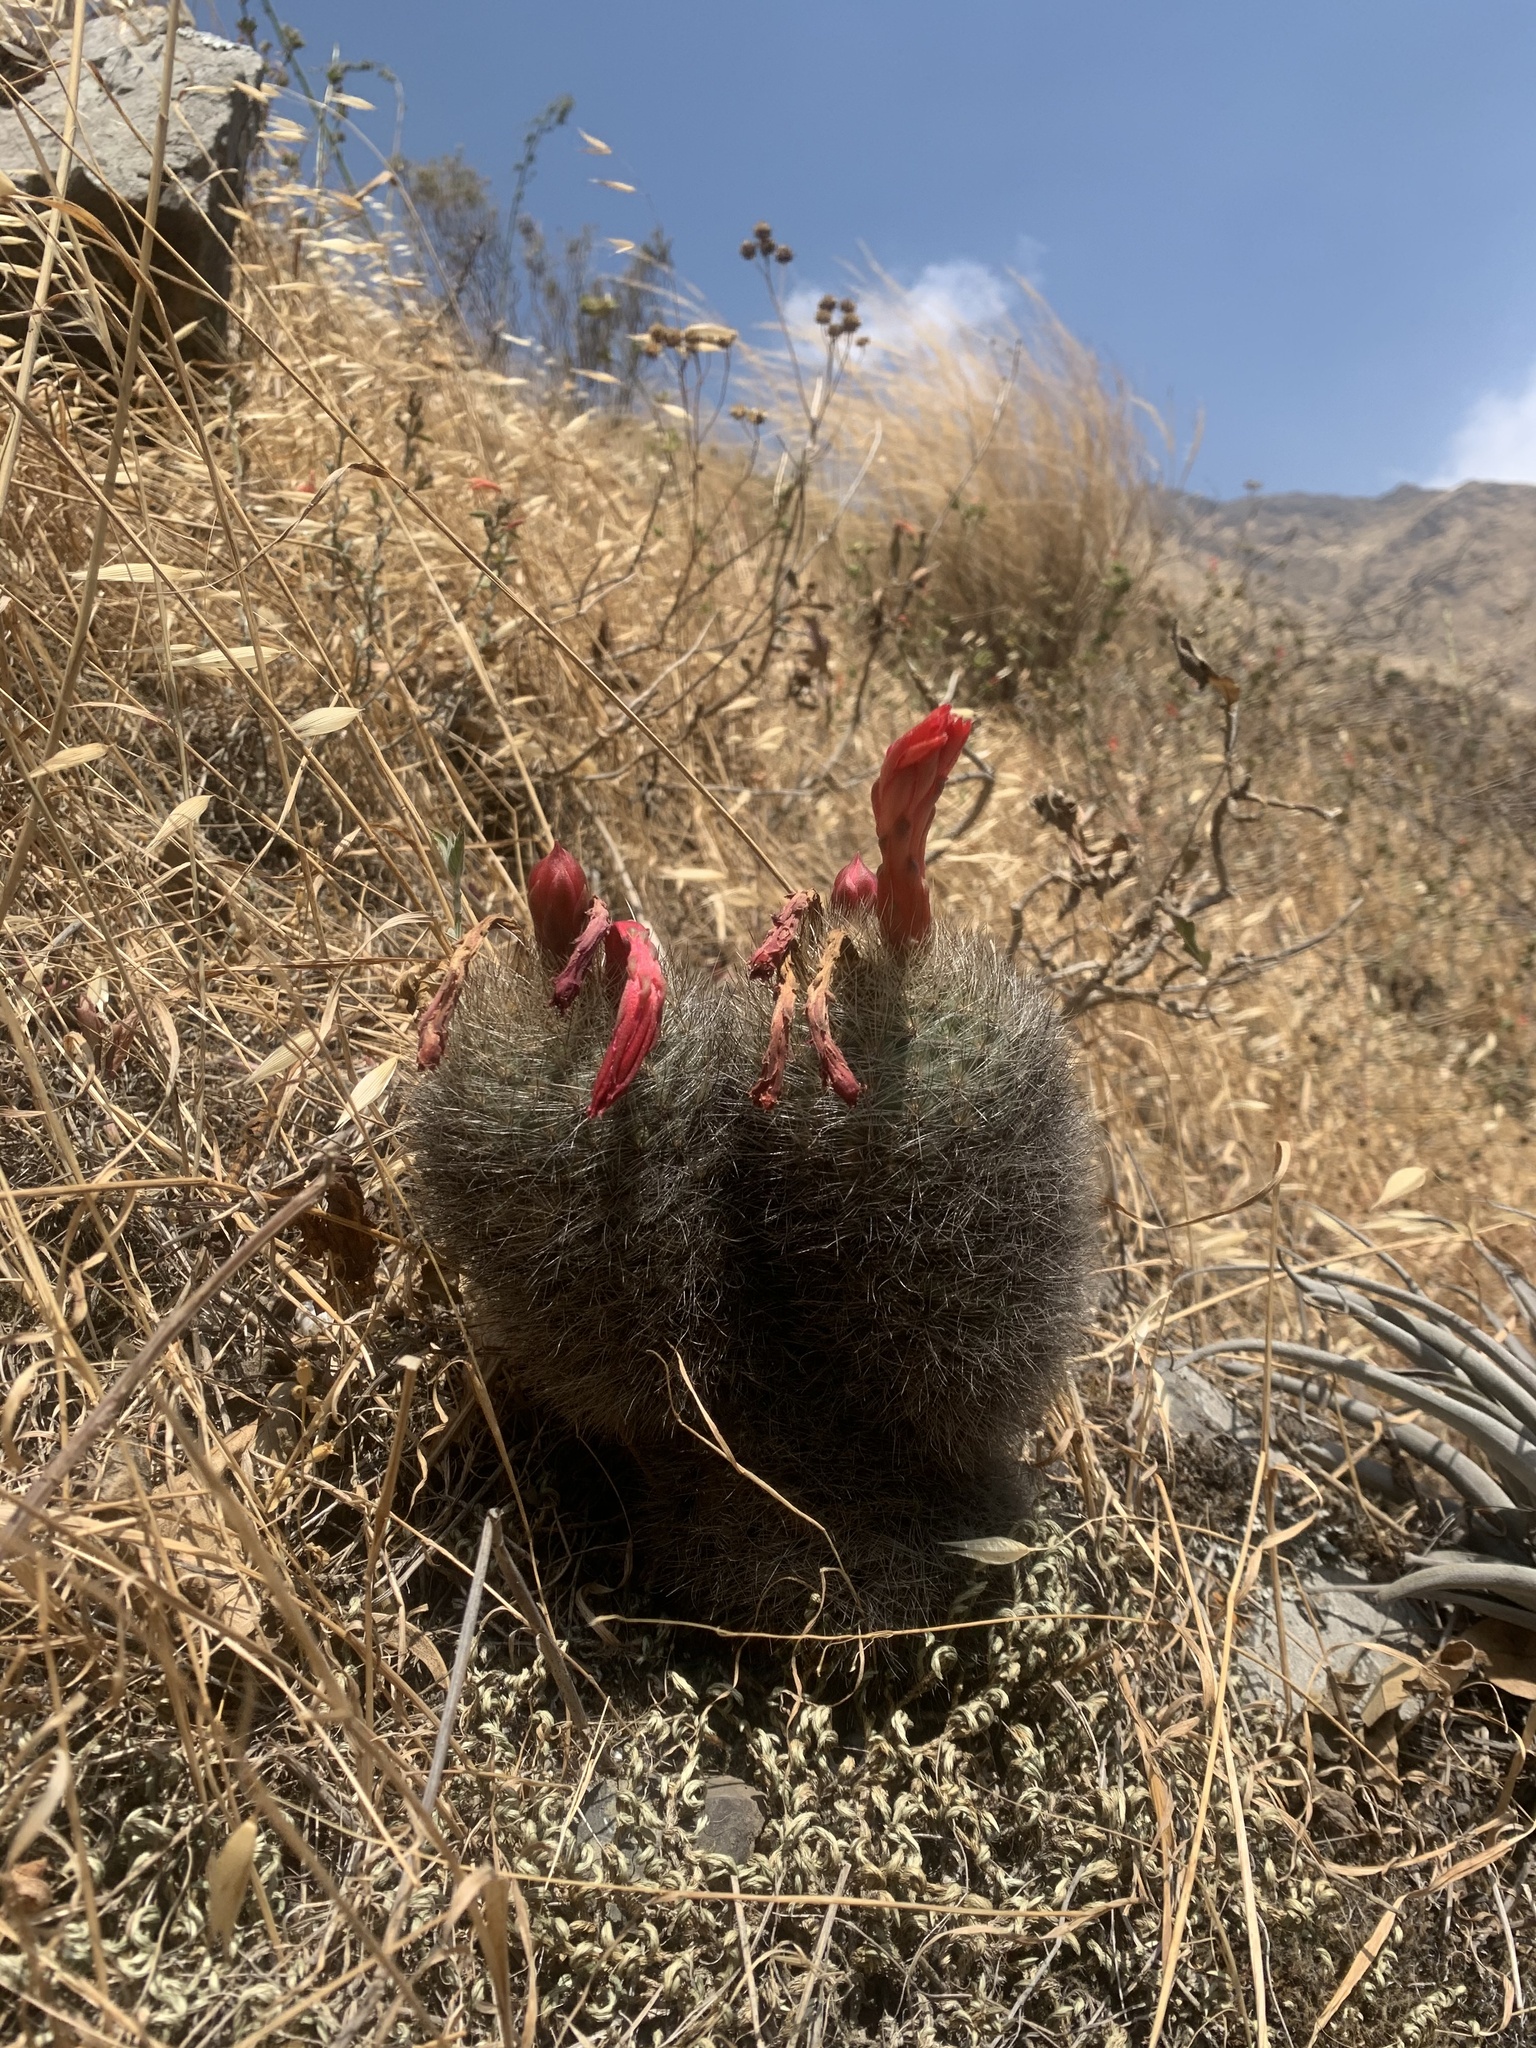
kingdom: Plantae
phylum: Tracheophyta
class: Magnoliopsida
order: Caryophyllales
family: Cactaceae
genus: Matucana
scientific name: Matucana haynii
